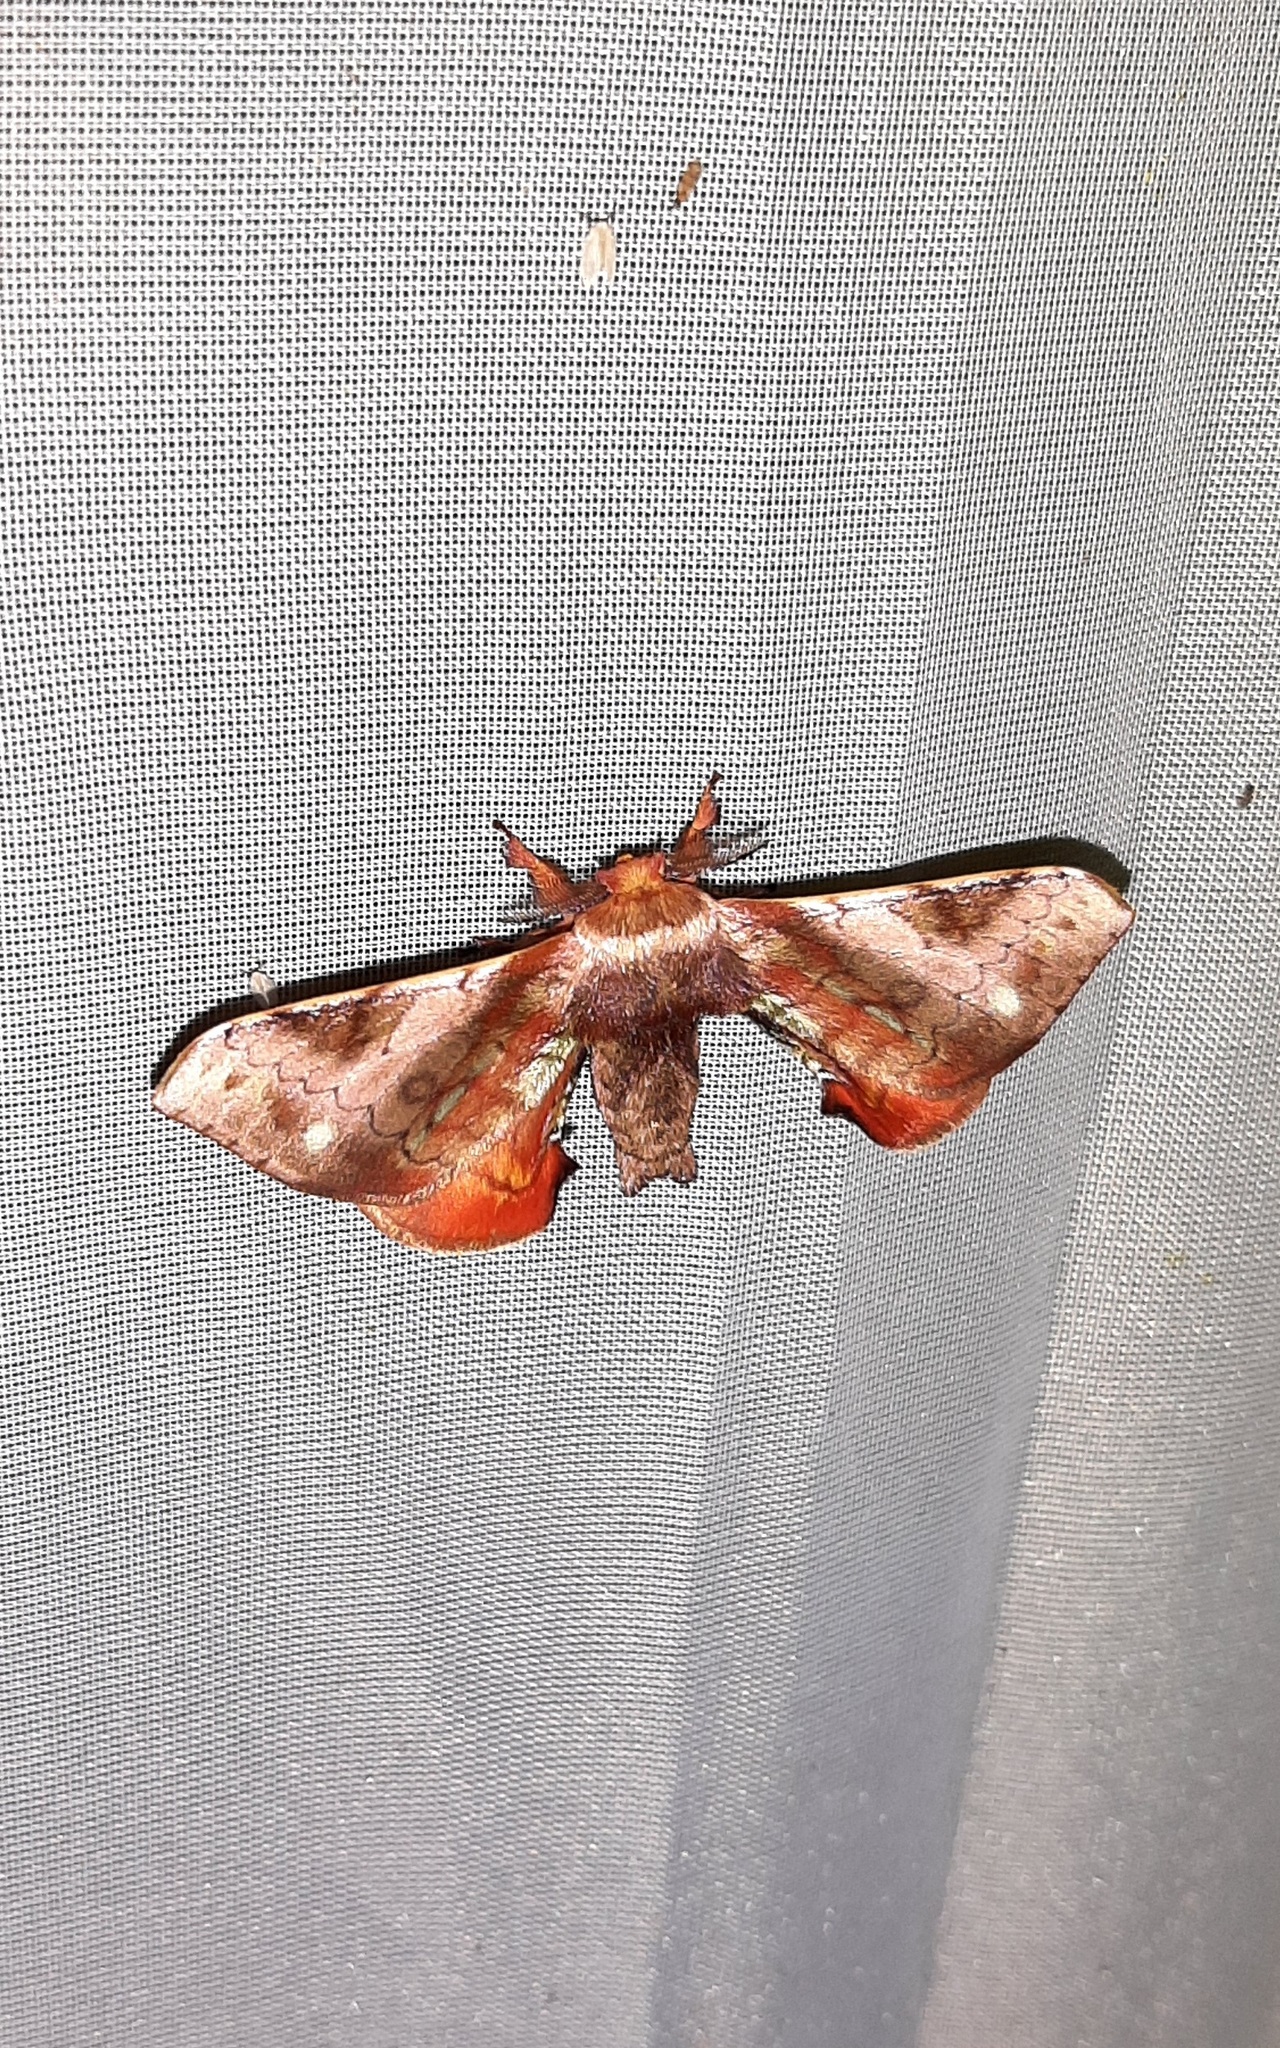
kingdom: Animalia
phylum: Arthropoda
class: Insecta
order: Lepidoptera
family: Bombycidae
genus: Epia
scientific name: Epia vulnerata
